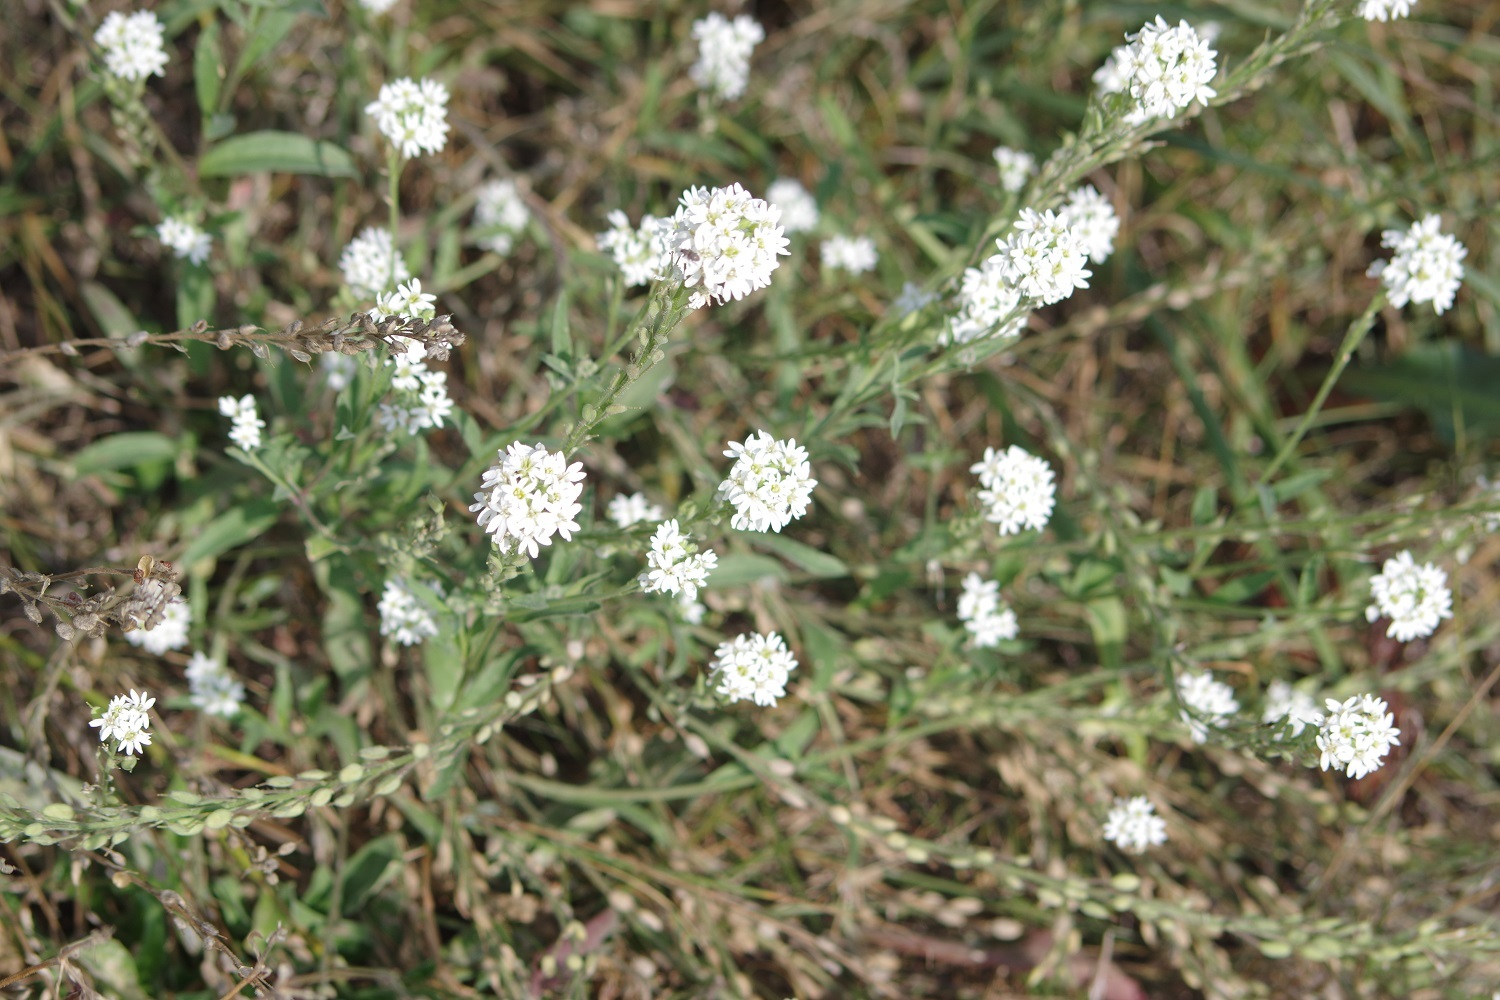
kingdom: Plantae
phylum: Tracheophyta
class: Magnoliopsida
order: Brassicales
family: Brassicaceae
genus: Berteroa
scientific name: Berteroa incana
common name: Hoary alison
